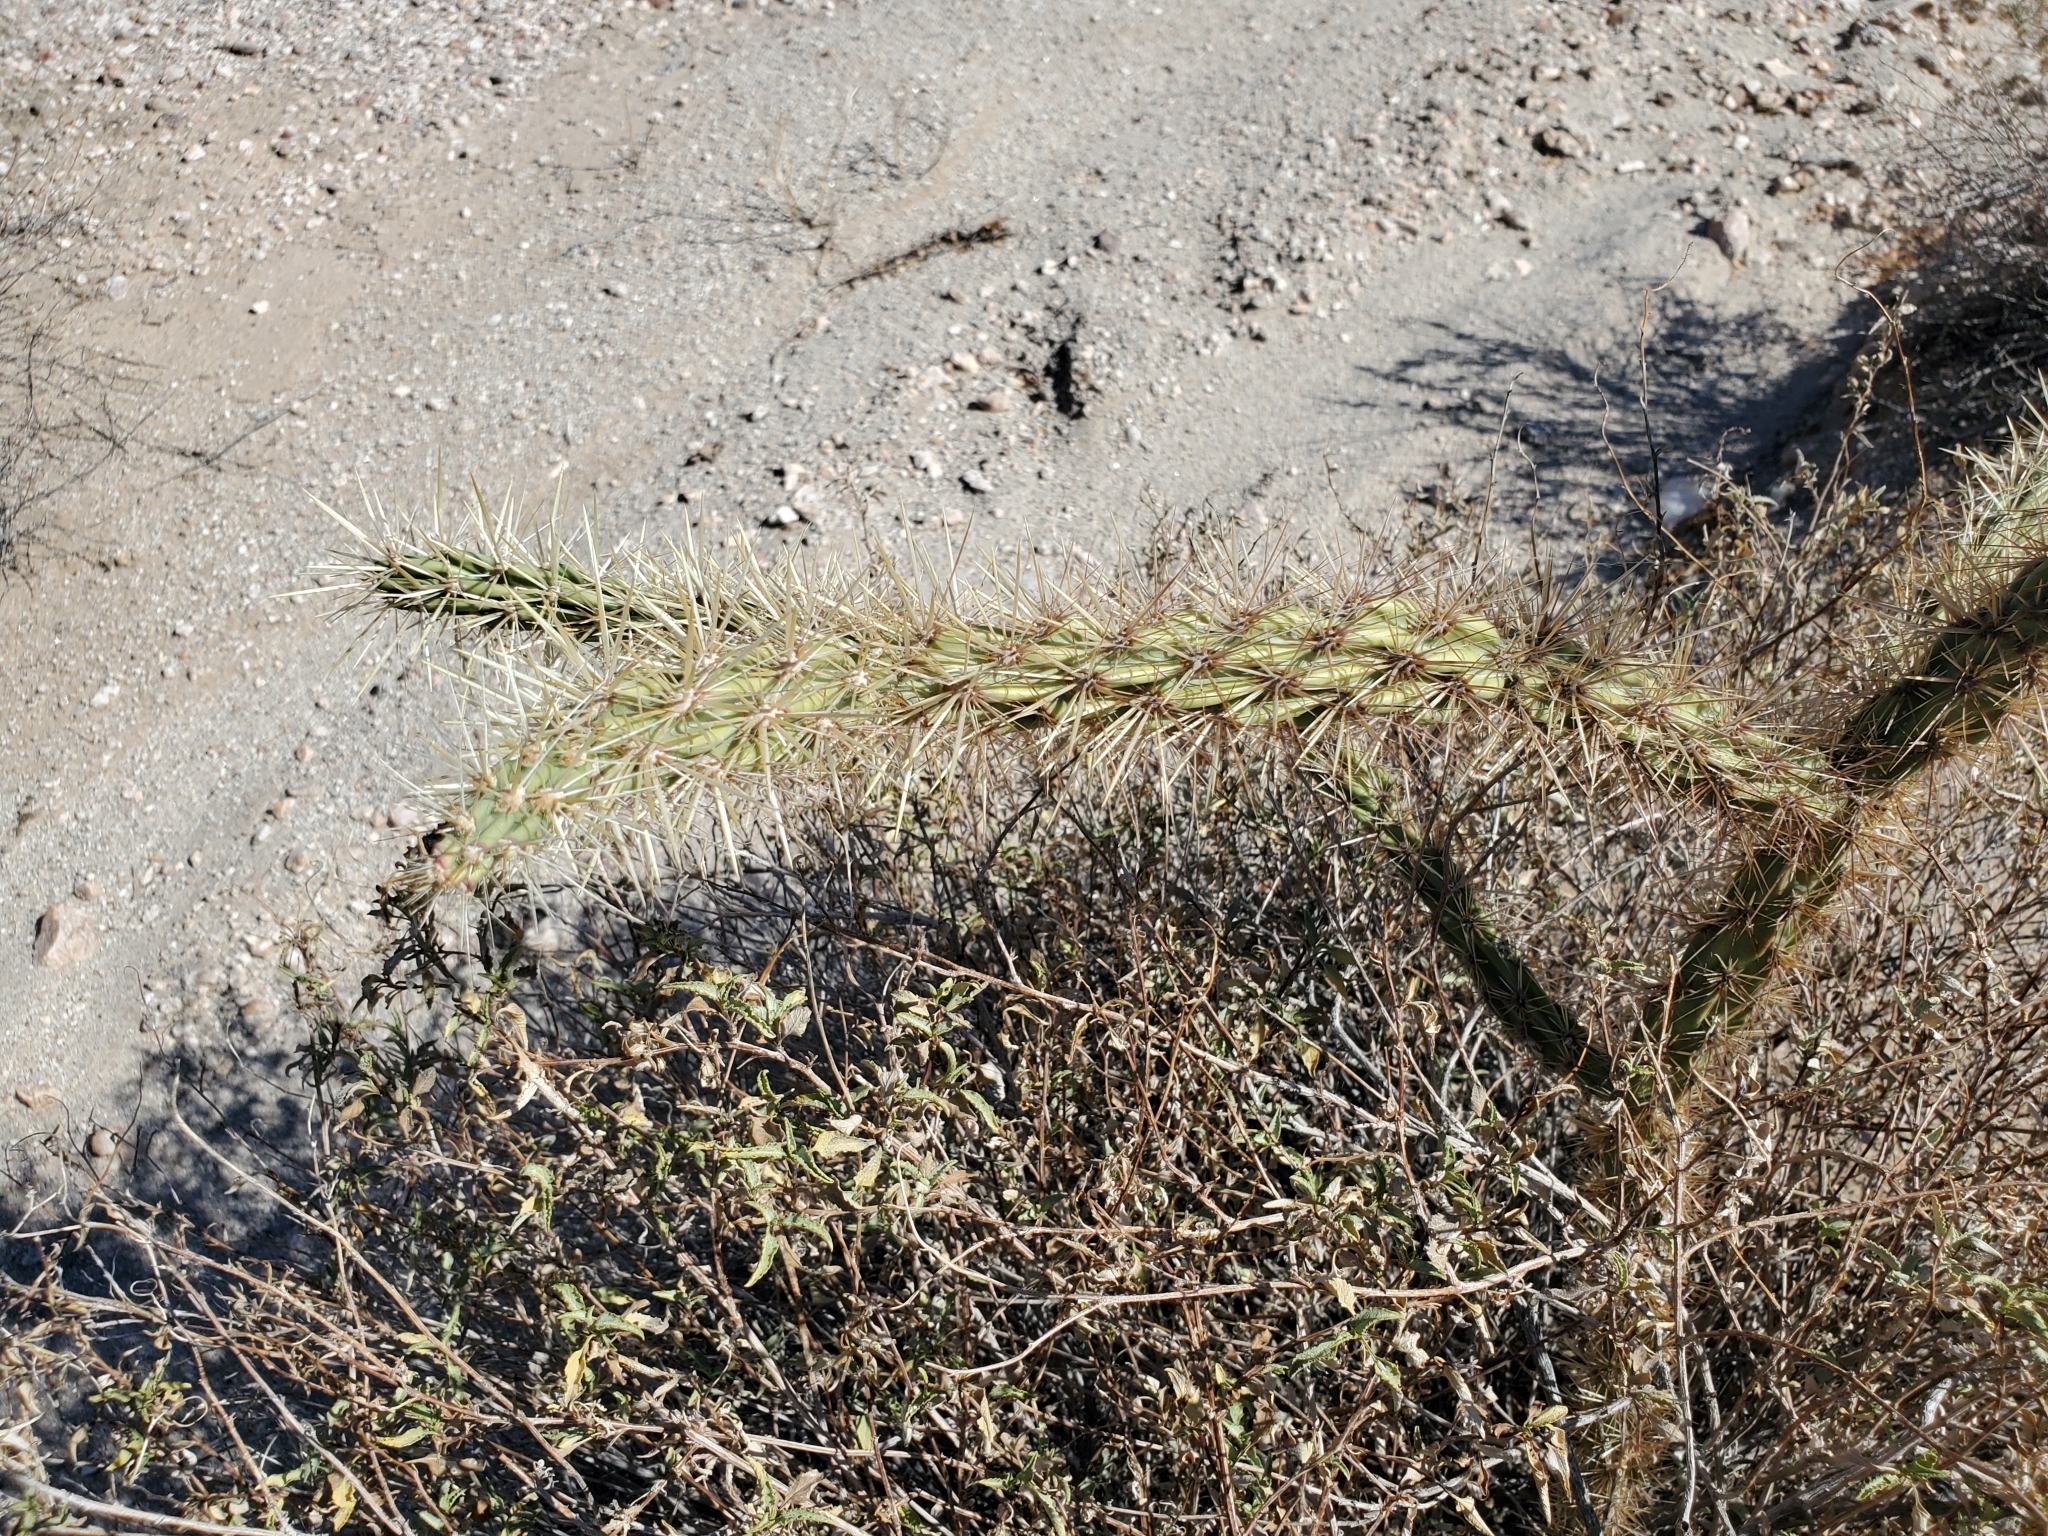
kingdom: Plantae
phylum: Tracheophyta
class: Magnoliopsida
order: Caryophyllales
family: Cactaceae
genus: Cylindropuntia
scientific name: Cylindropuntia acanthocarpa
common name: Buckhorn cholla
